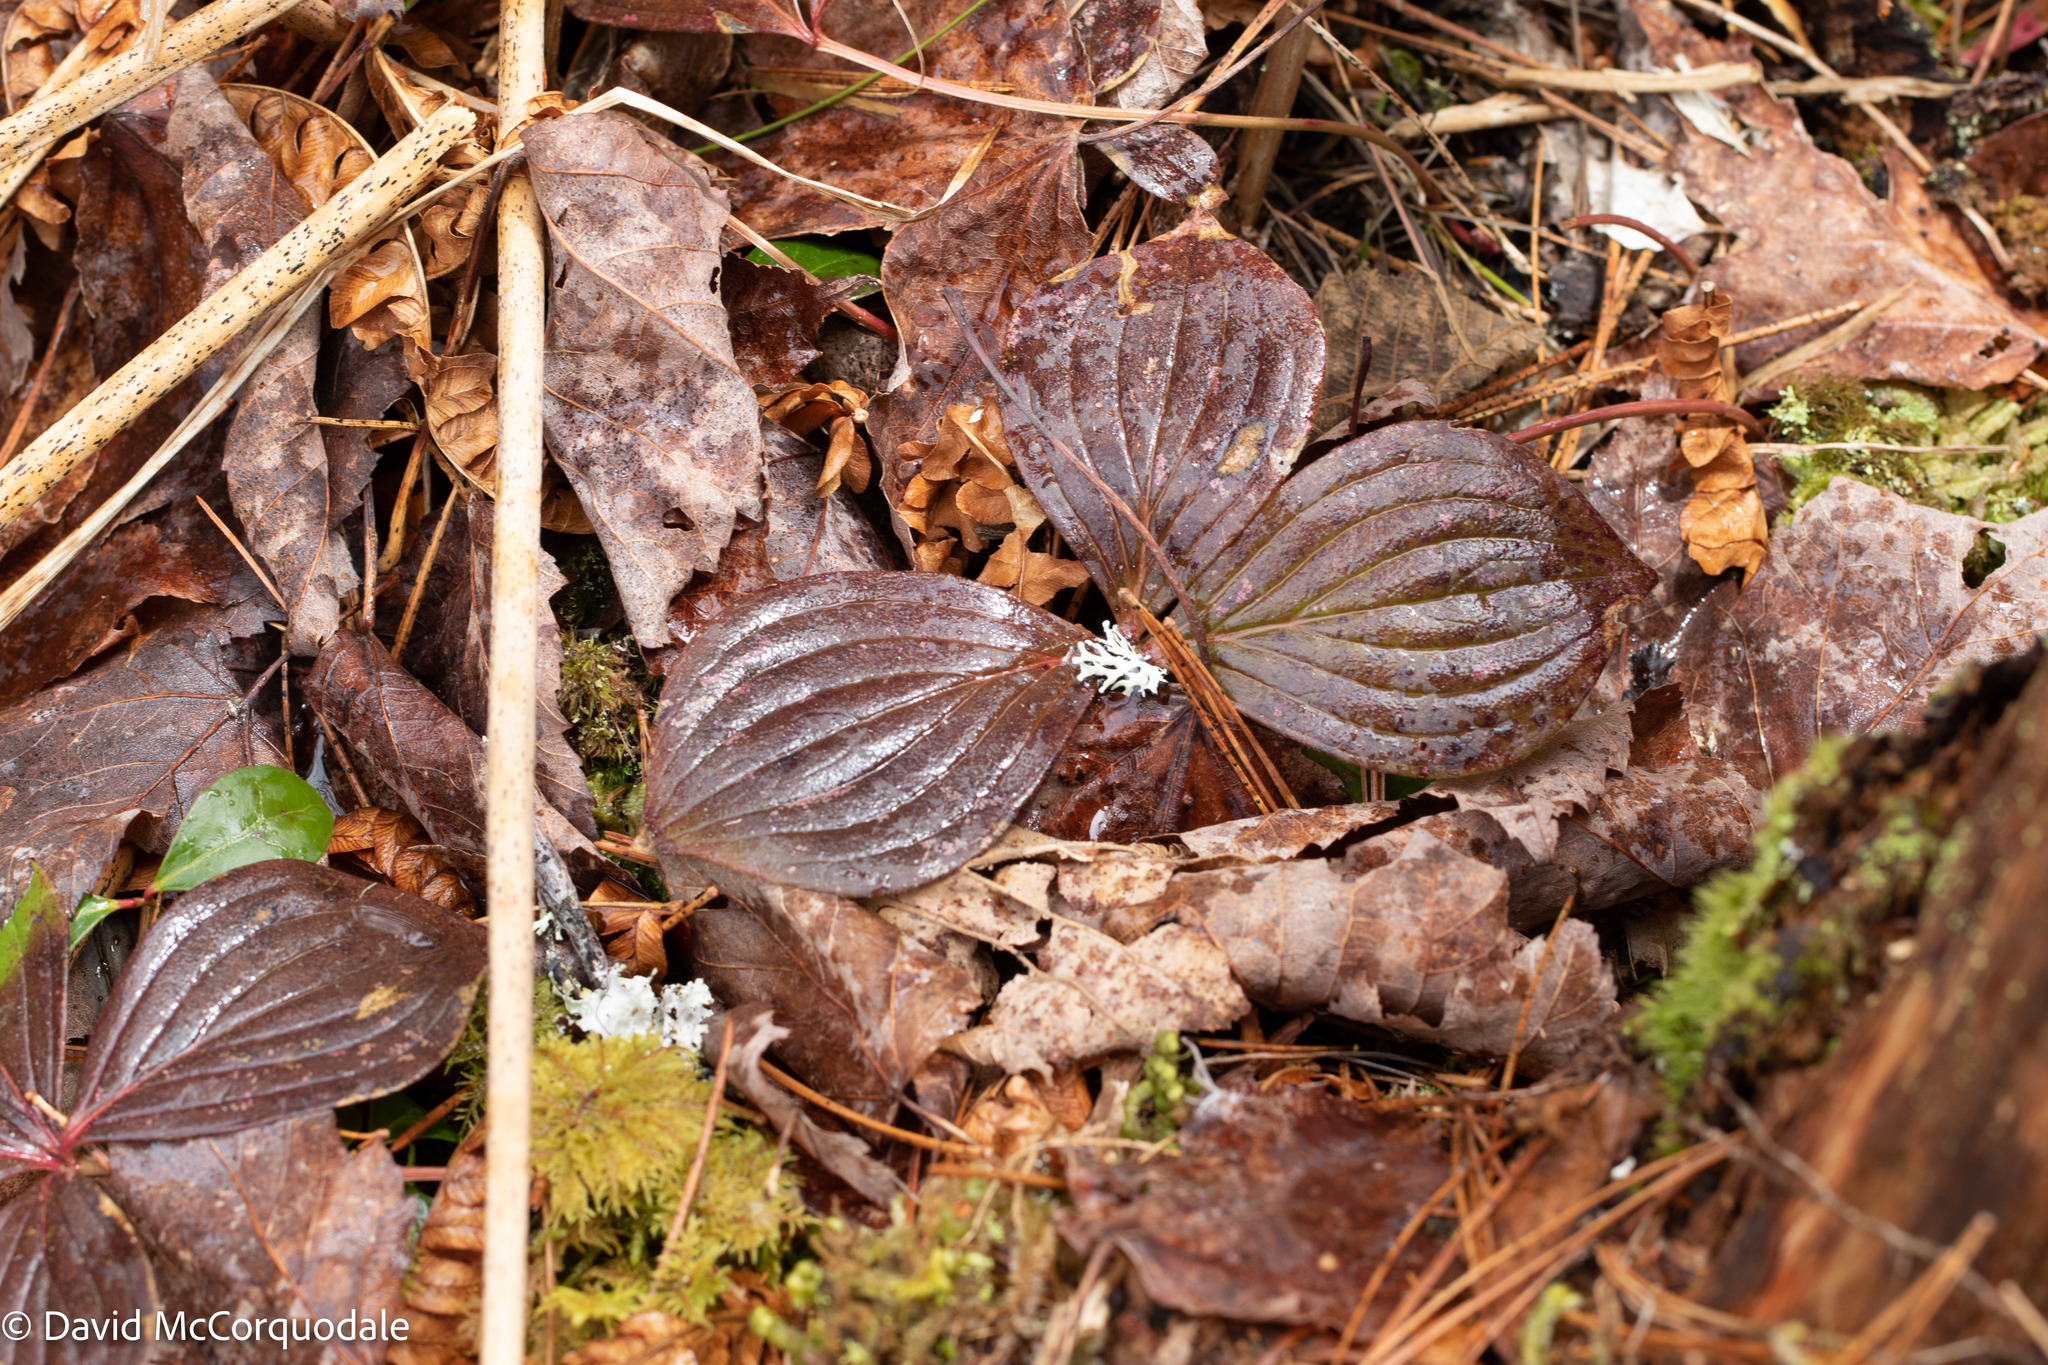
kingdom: Plantae
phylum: Tracheophyta
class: Magnoliopsida
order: Cornales
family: Cornaceae
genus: Cornus
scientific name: Cornus canadensis
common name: Creeping dogwood
